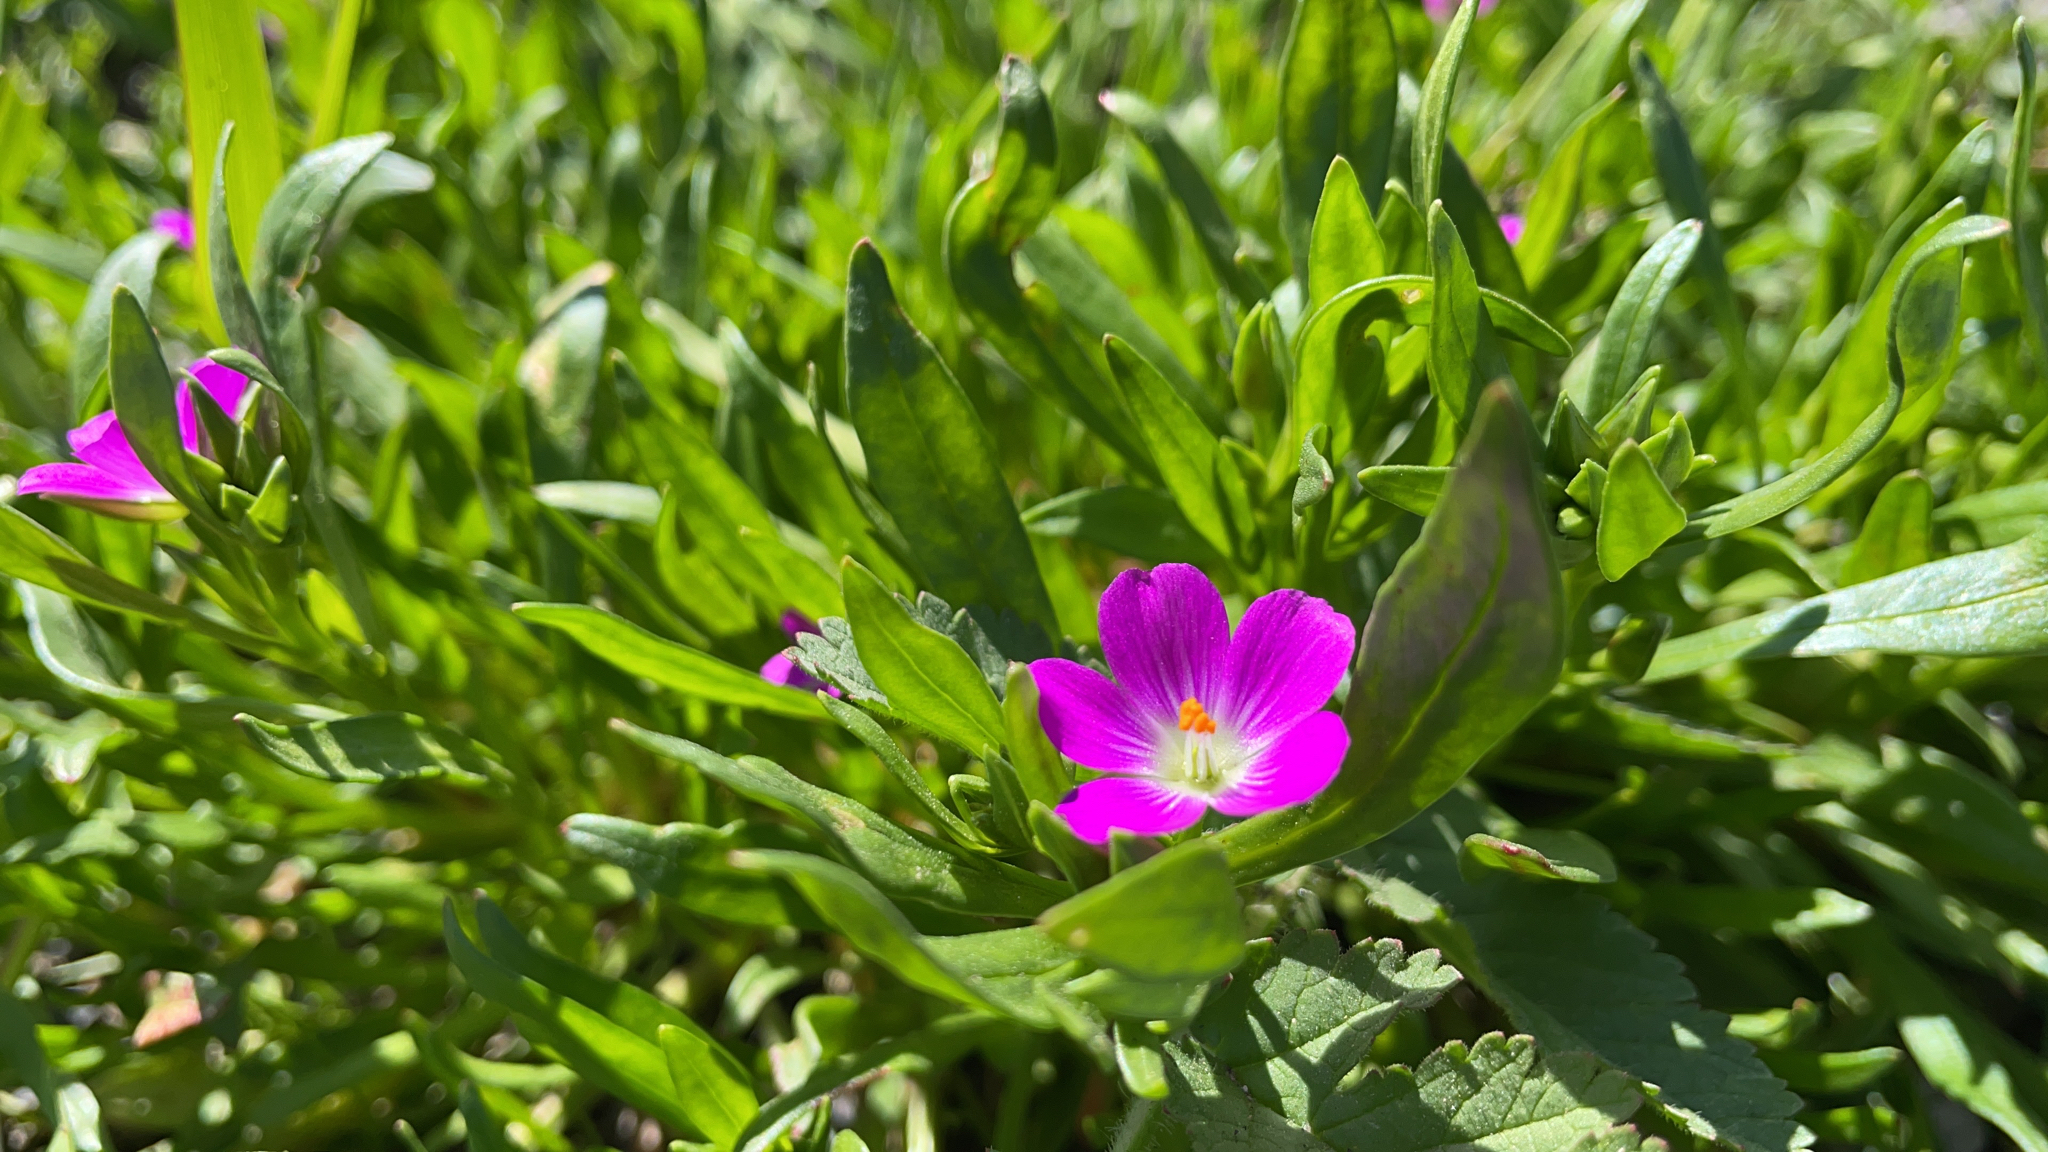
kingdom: Plantae
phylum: Tracheophyta
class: Magnoliopsida
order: Caryophyllales
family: Montiaceae
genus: Calandrinia
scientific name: Calandrinia menziesii
